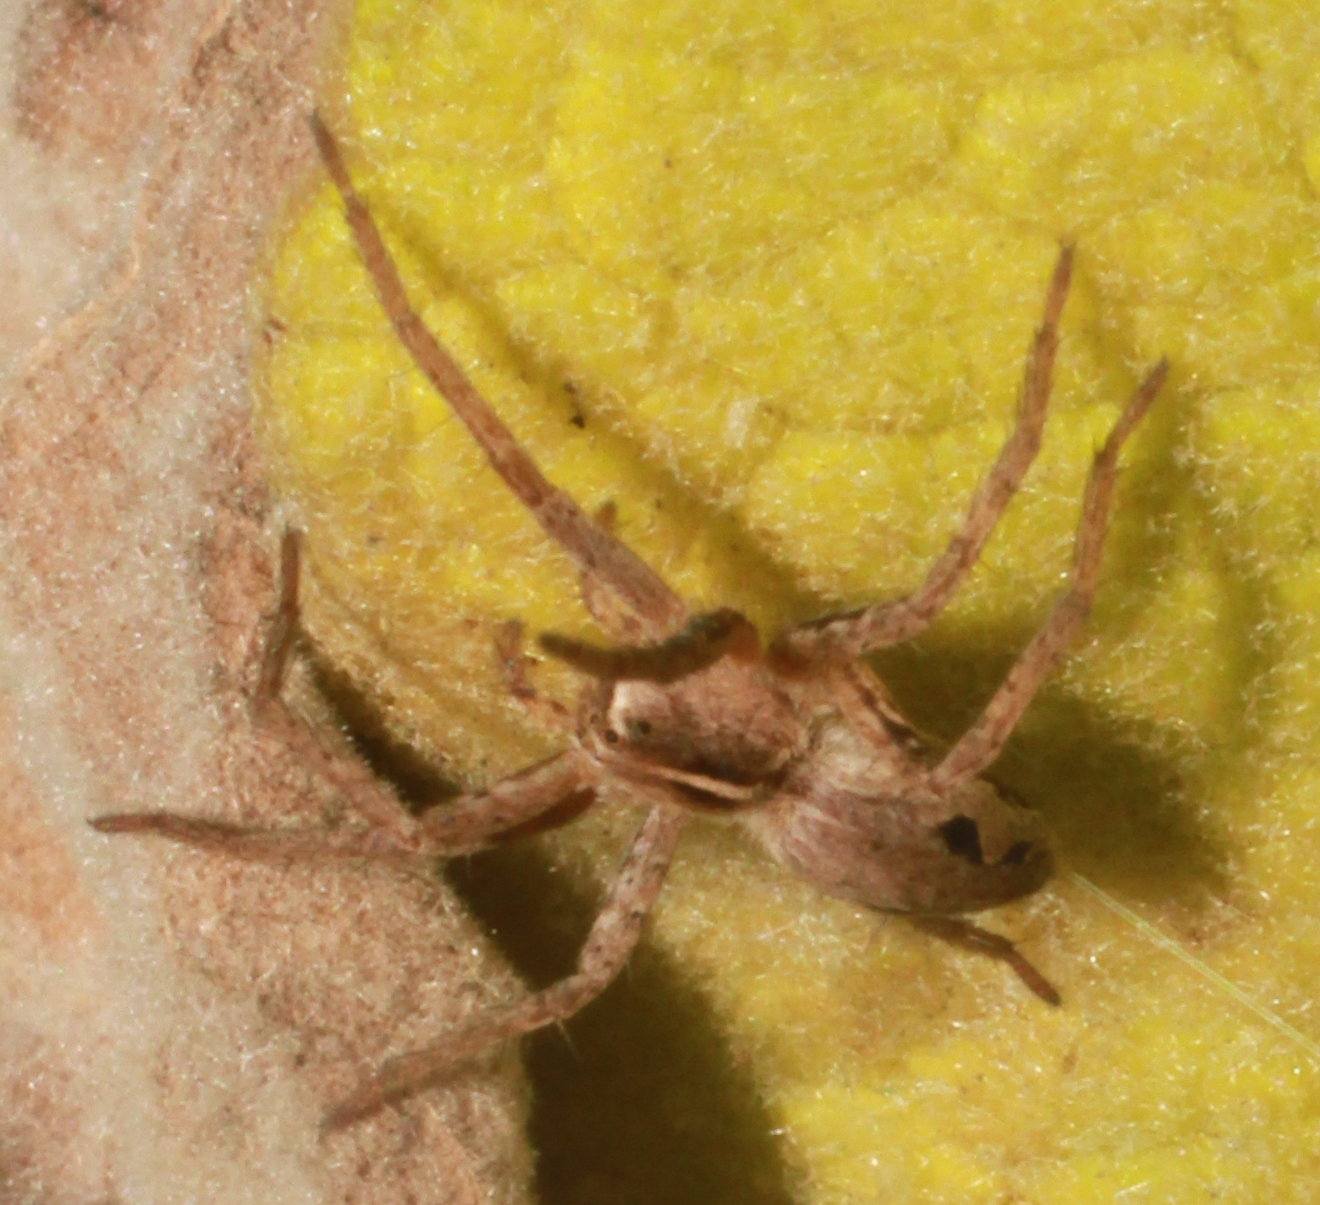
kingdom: Animalia
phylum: Arthropoda
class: Arachnida
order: Araneae
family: Pisauridae
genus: Pisaura
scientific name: Pisaura mirabilis
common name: Tent spider
